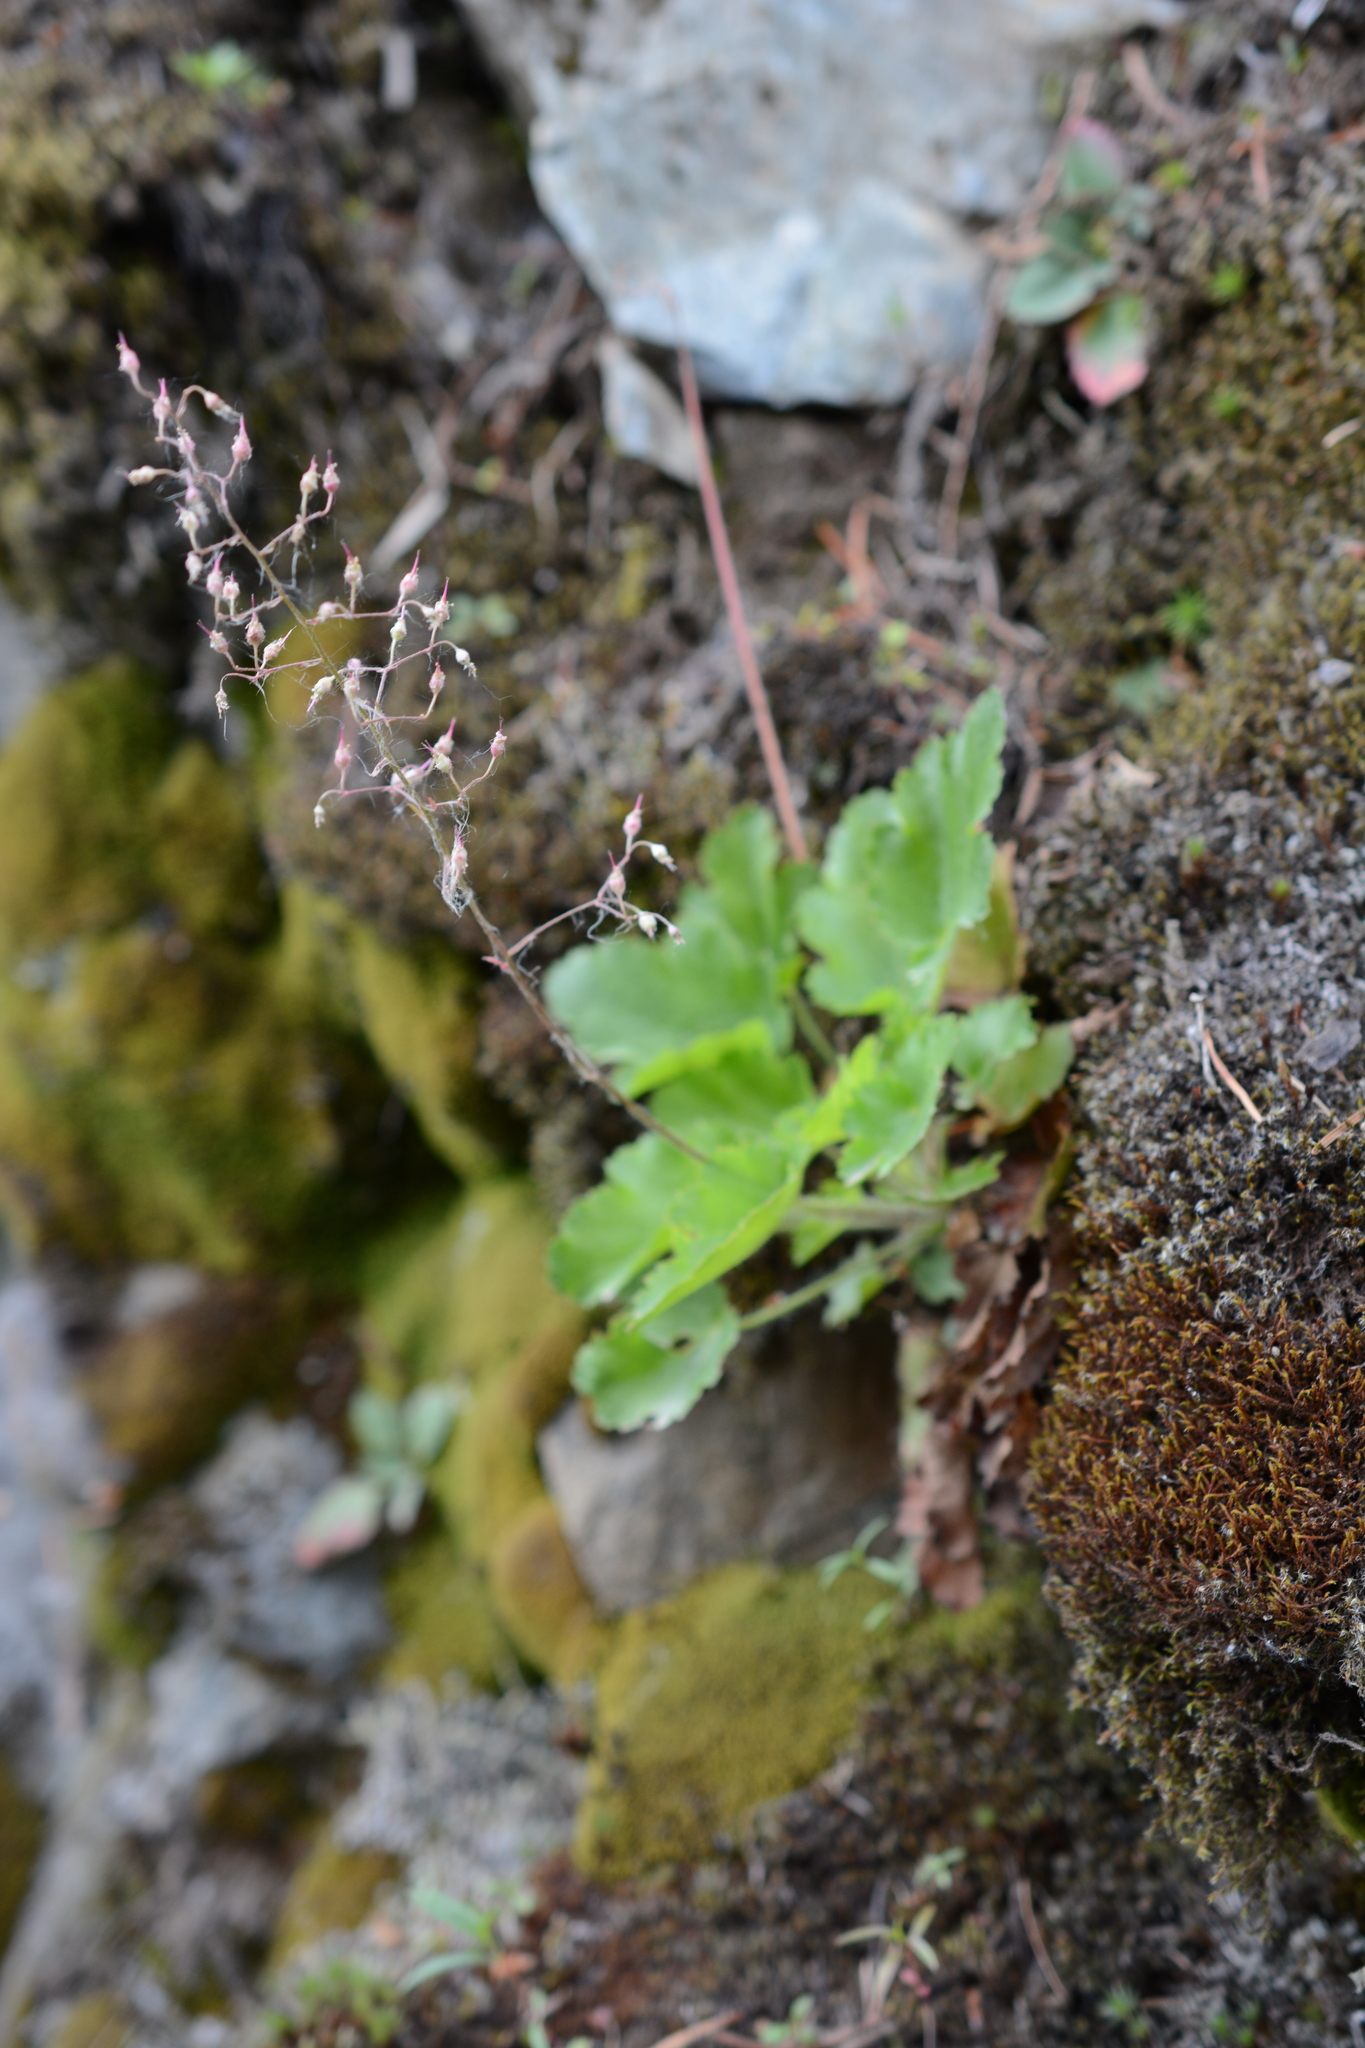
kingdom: Plantae
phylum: Tracheophyta
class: Magnoliopsida
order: Saxifragales
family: Saxifragaceae
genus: Heuchera
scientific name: Heuchera micrantha
